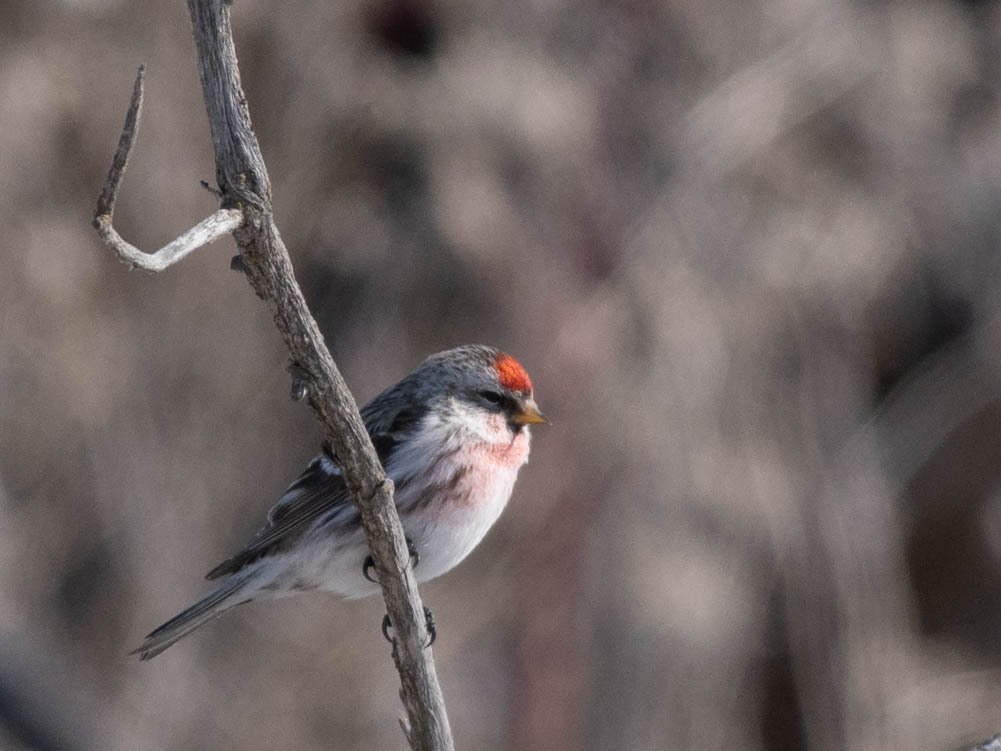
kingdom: Animalia
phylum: Chordata
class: Aves
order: Passeriformes
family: Fringillidae
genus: Acanthis
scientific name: Acanthis flammea
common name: Common redpoll
